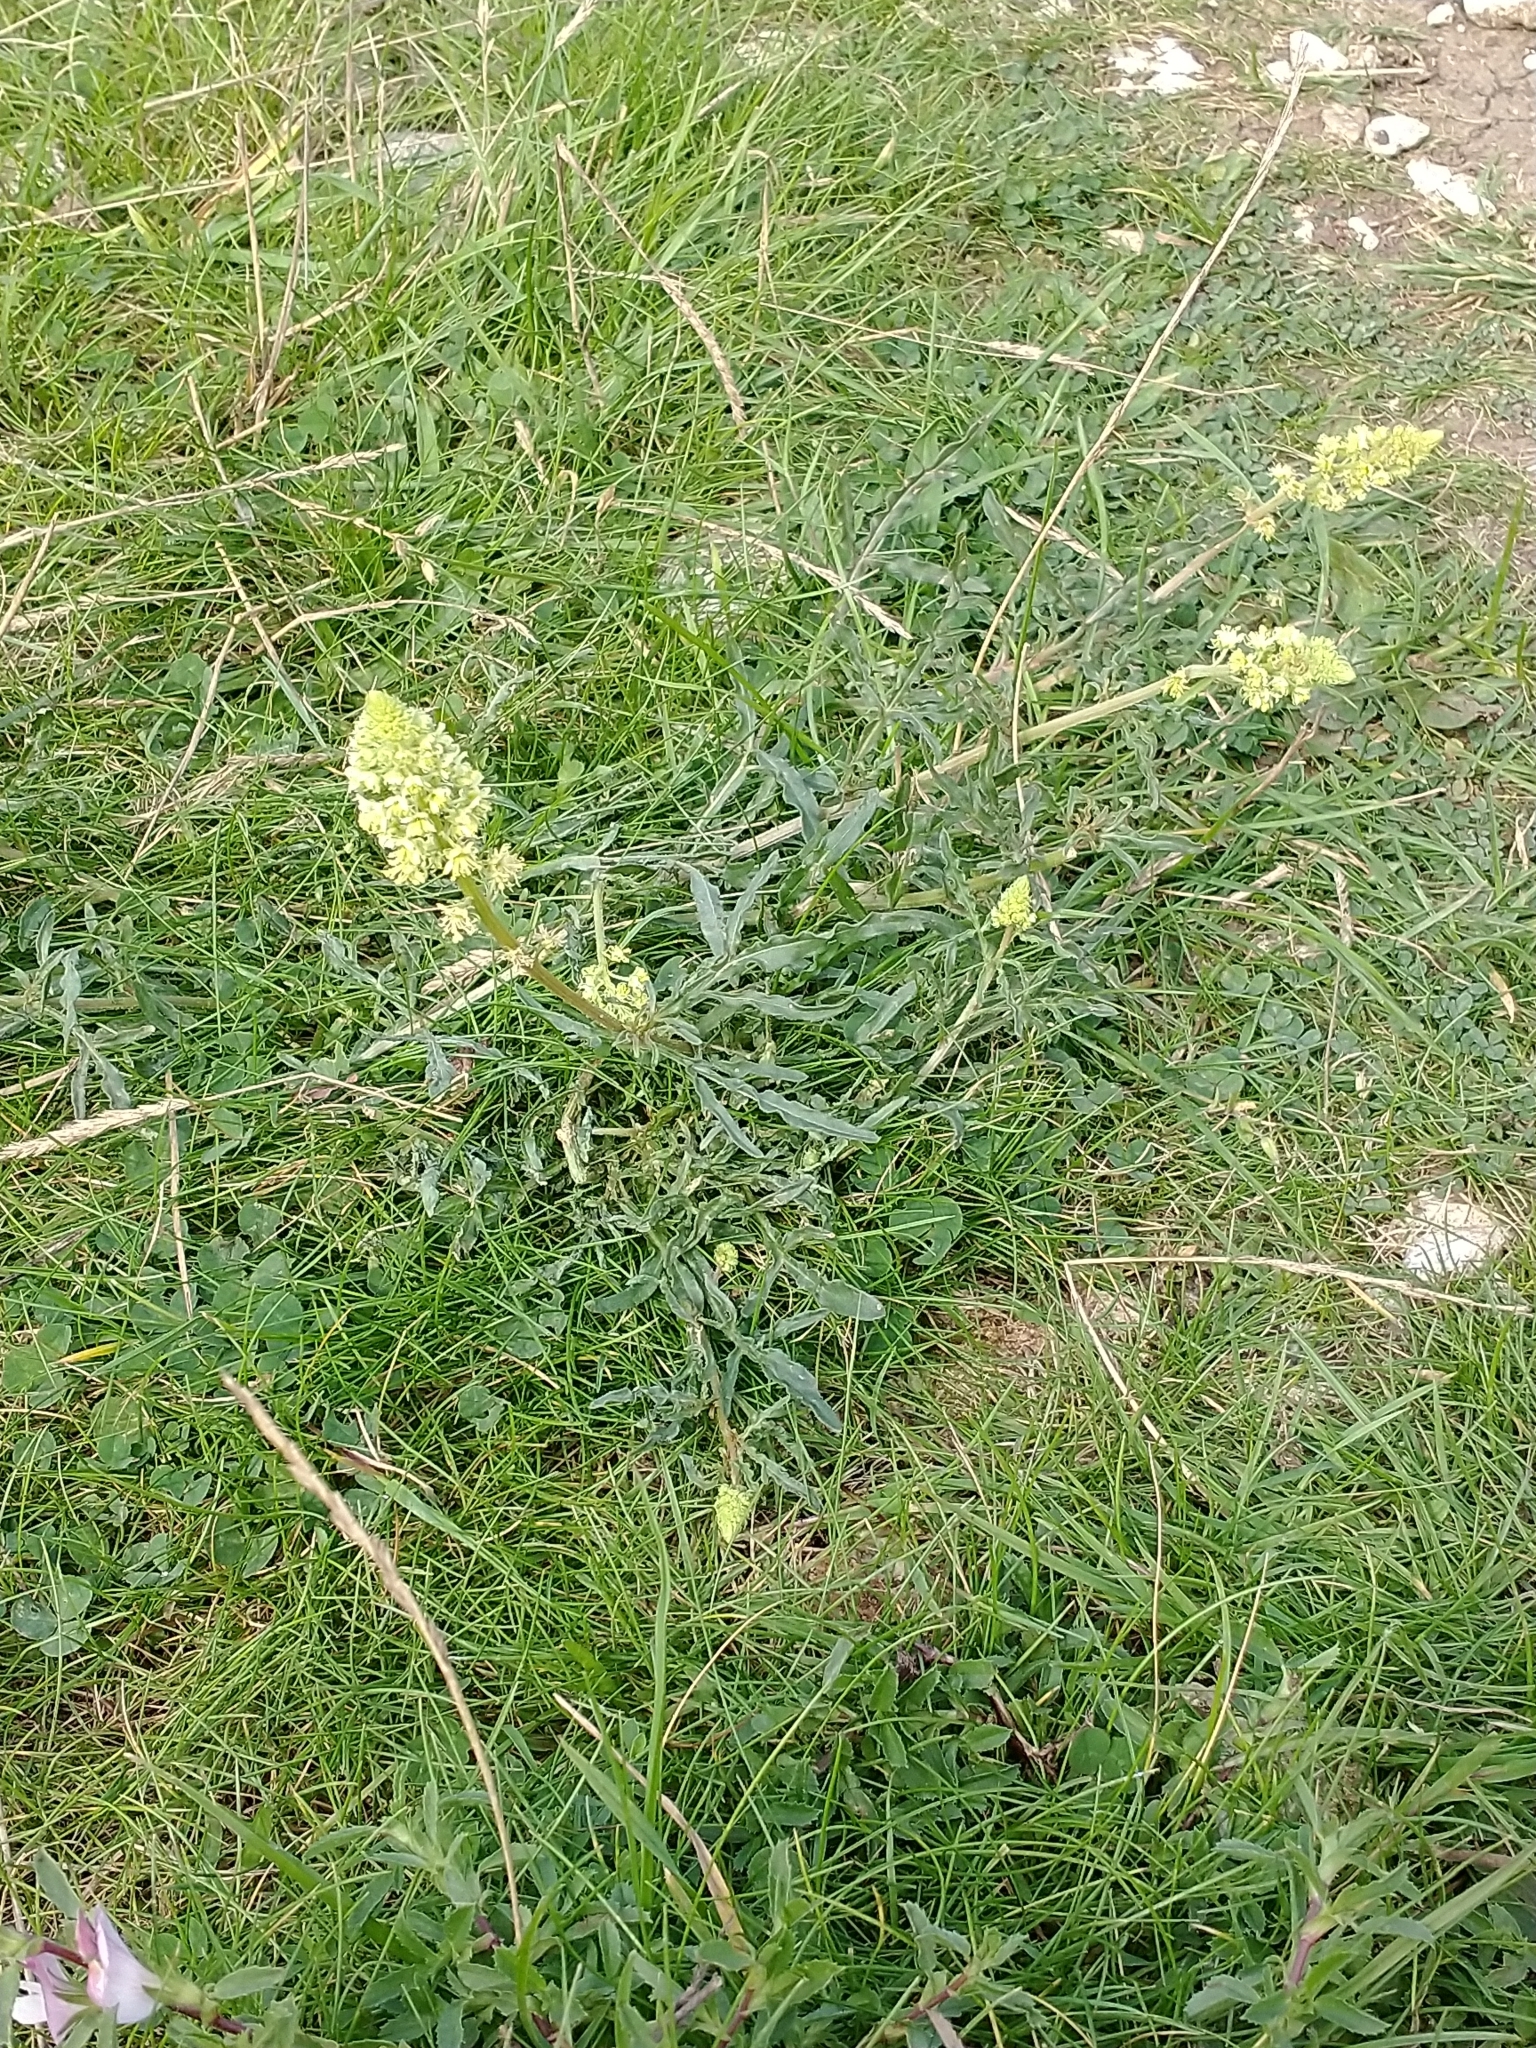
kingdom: Plantae
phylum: Tracheophyta
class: Magnoliopsida
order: Brassicales
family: Resedaceae
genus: Reseda
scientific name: Reseda lutea
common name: Wild mignonette
